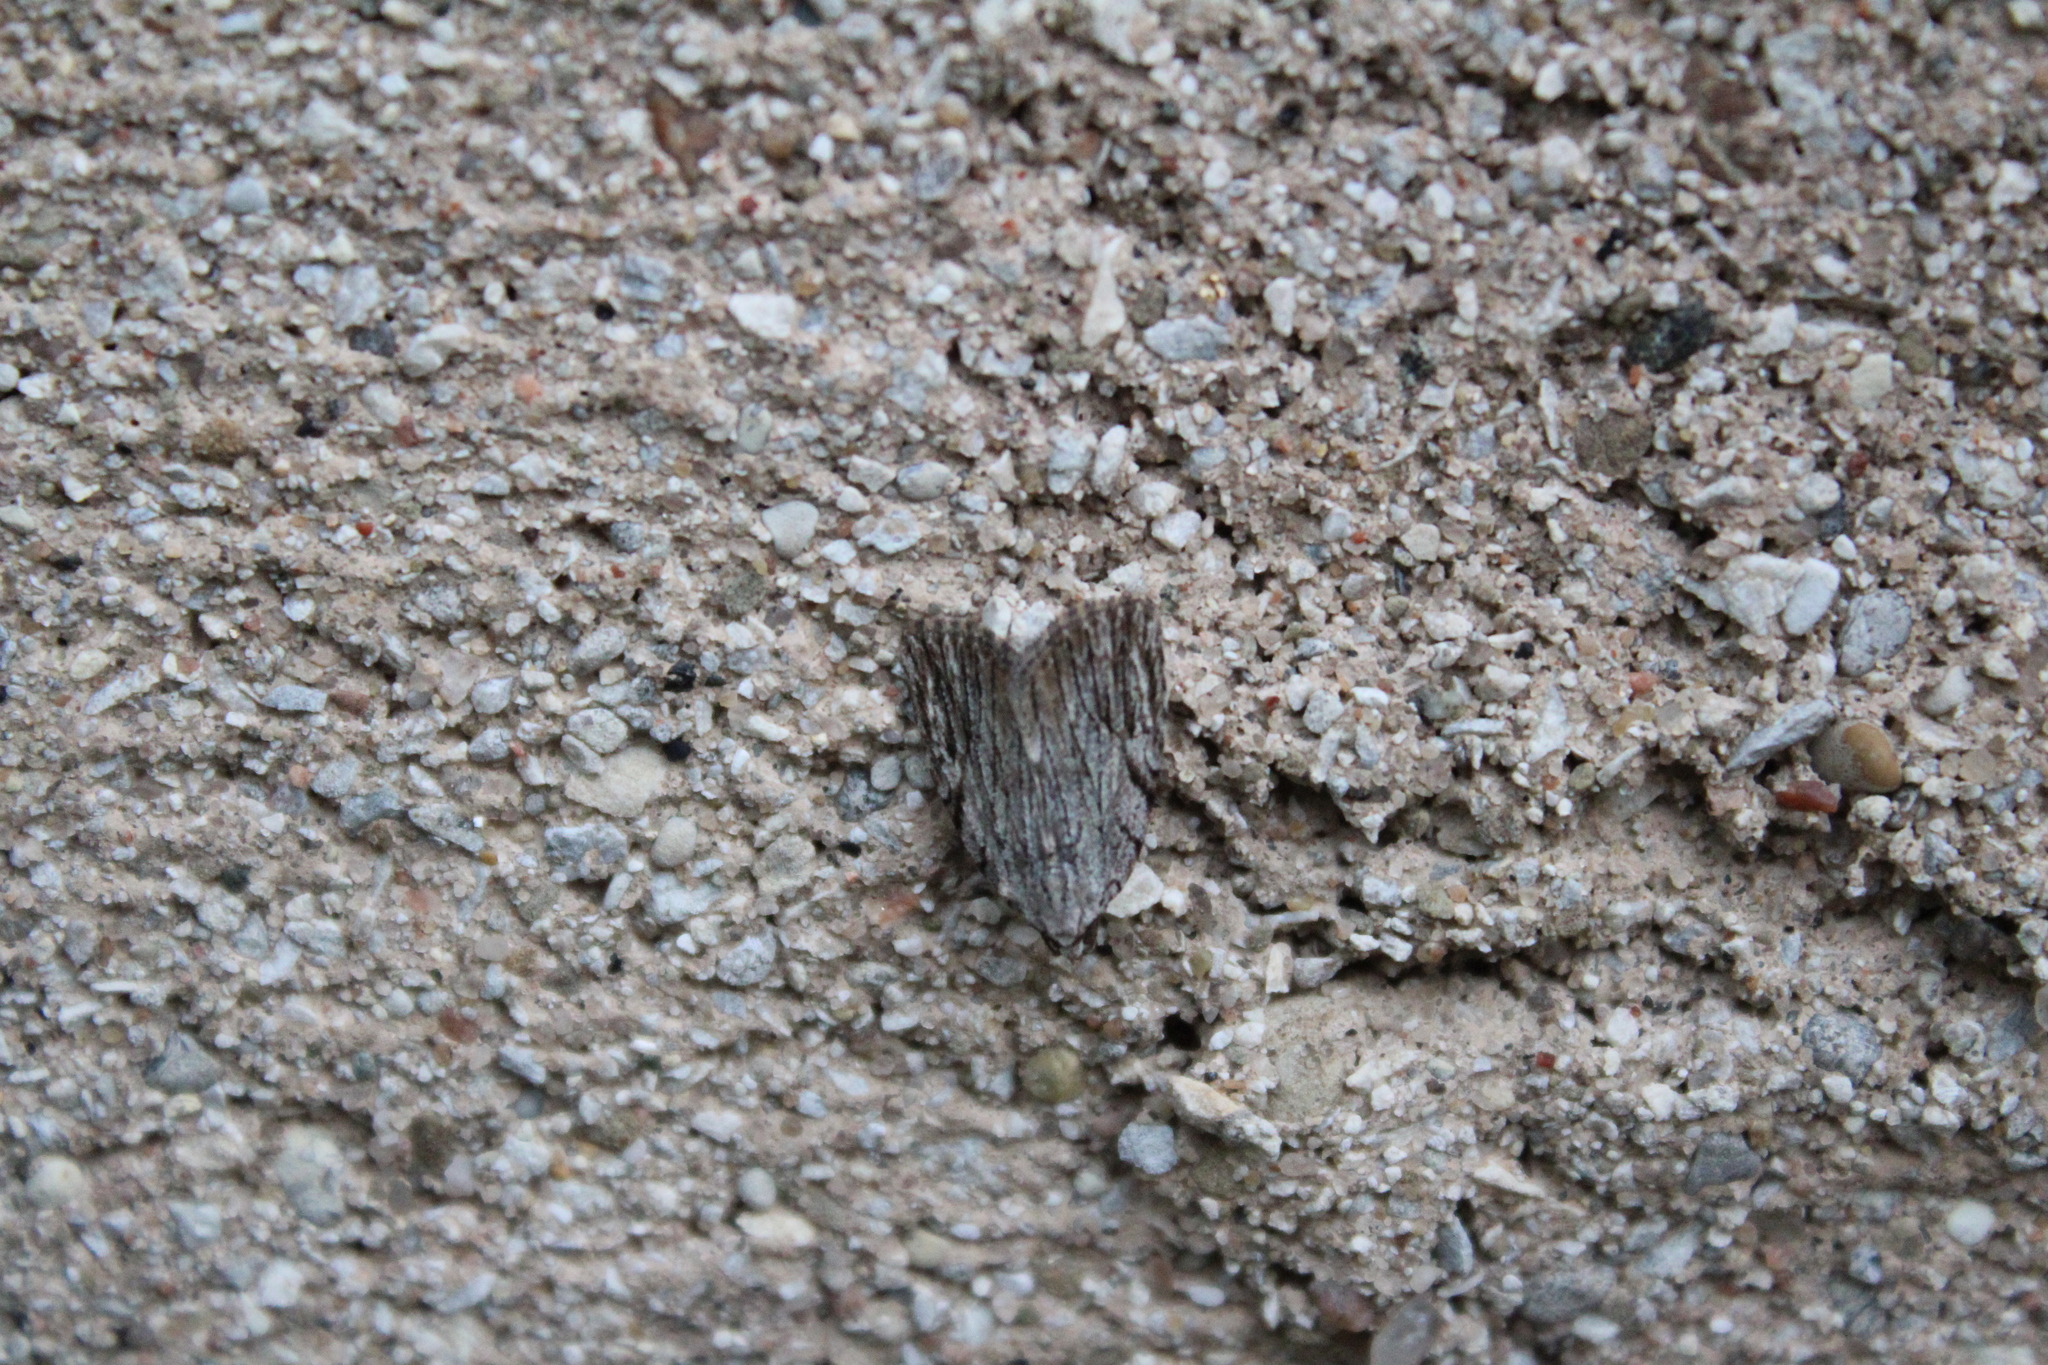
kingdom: Animalia
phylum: Arthropoda
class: Insecta
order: Lepidoptera
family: Noctuidae
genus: Balsa
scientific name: Balsa tristrigella
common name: Three-lined balsa moth
